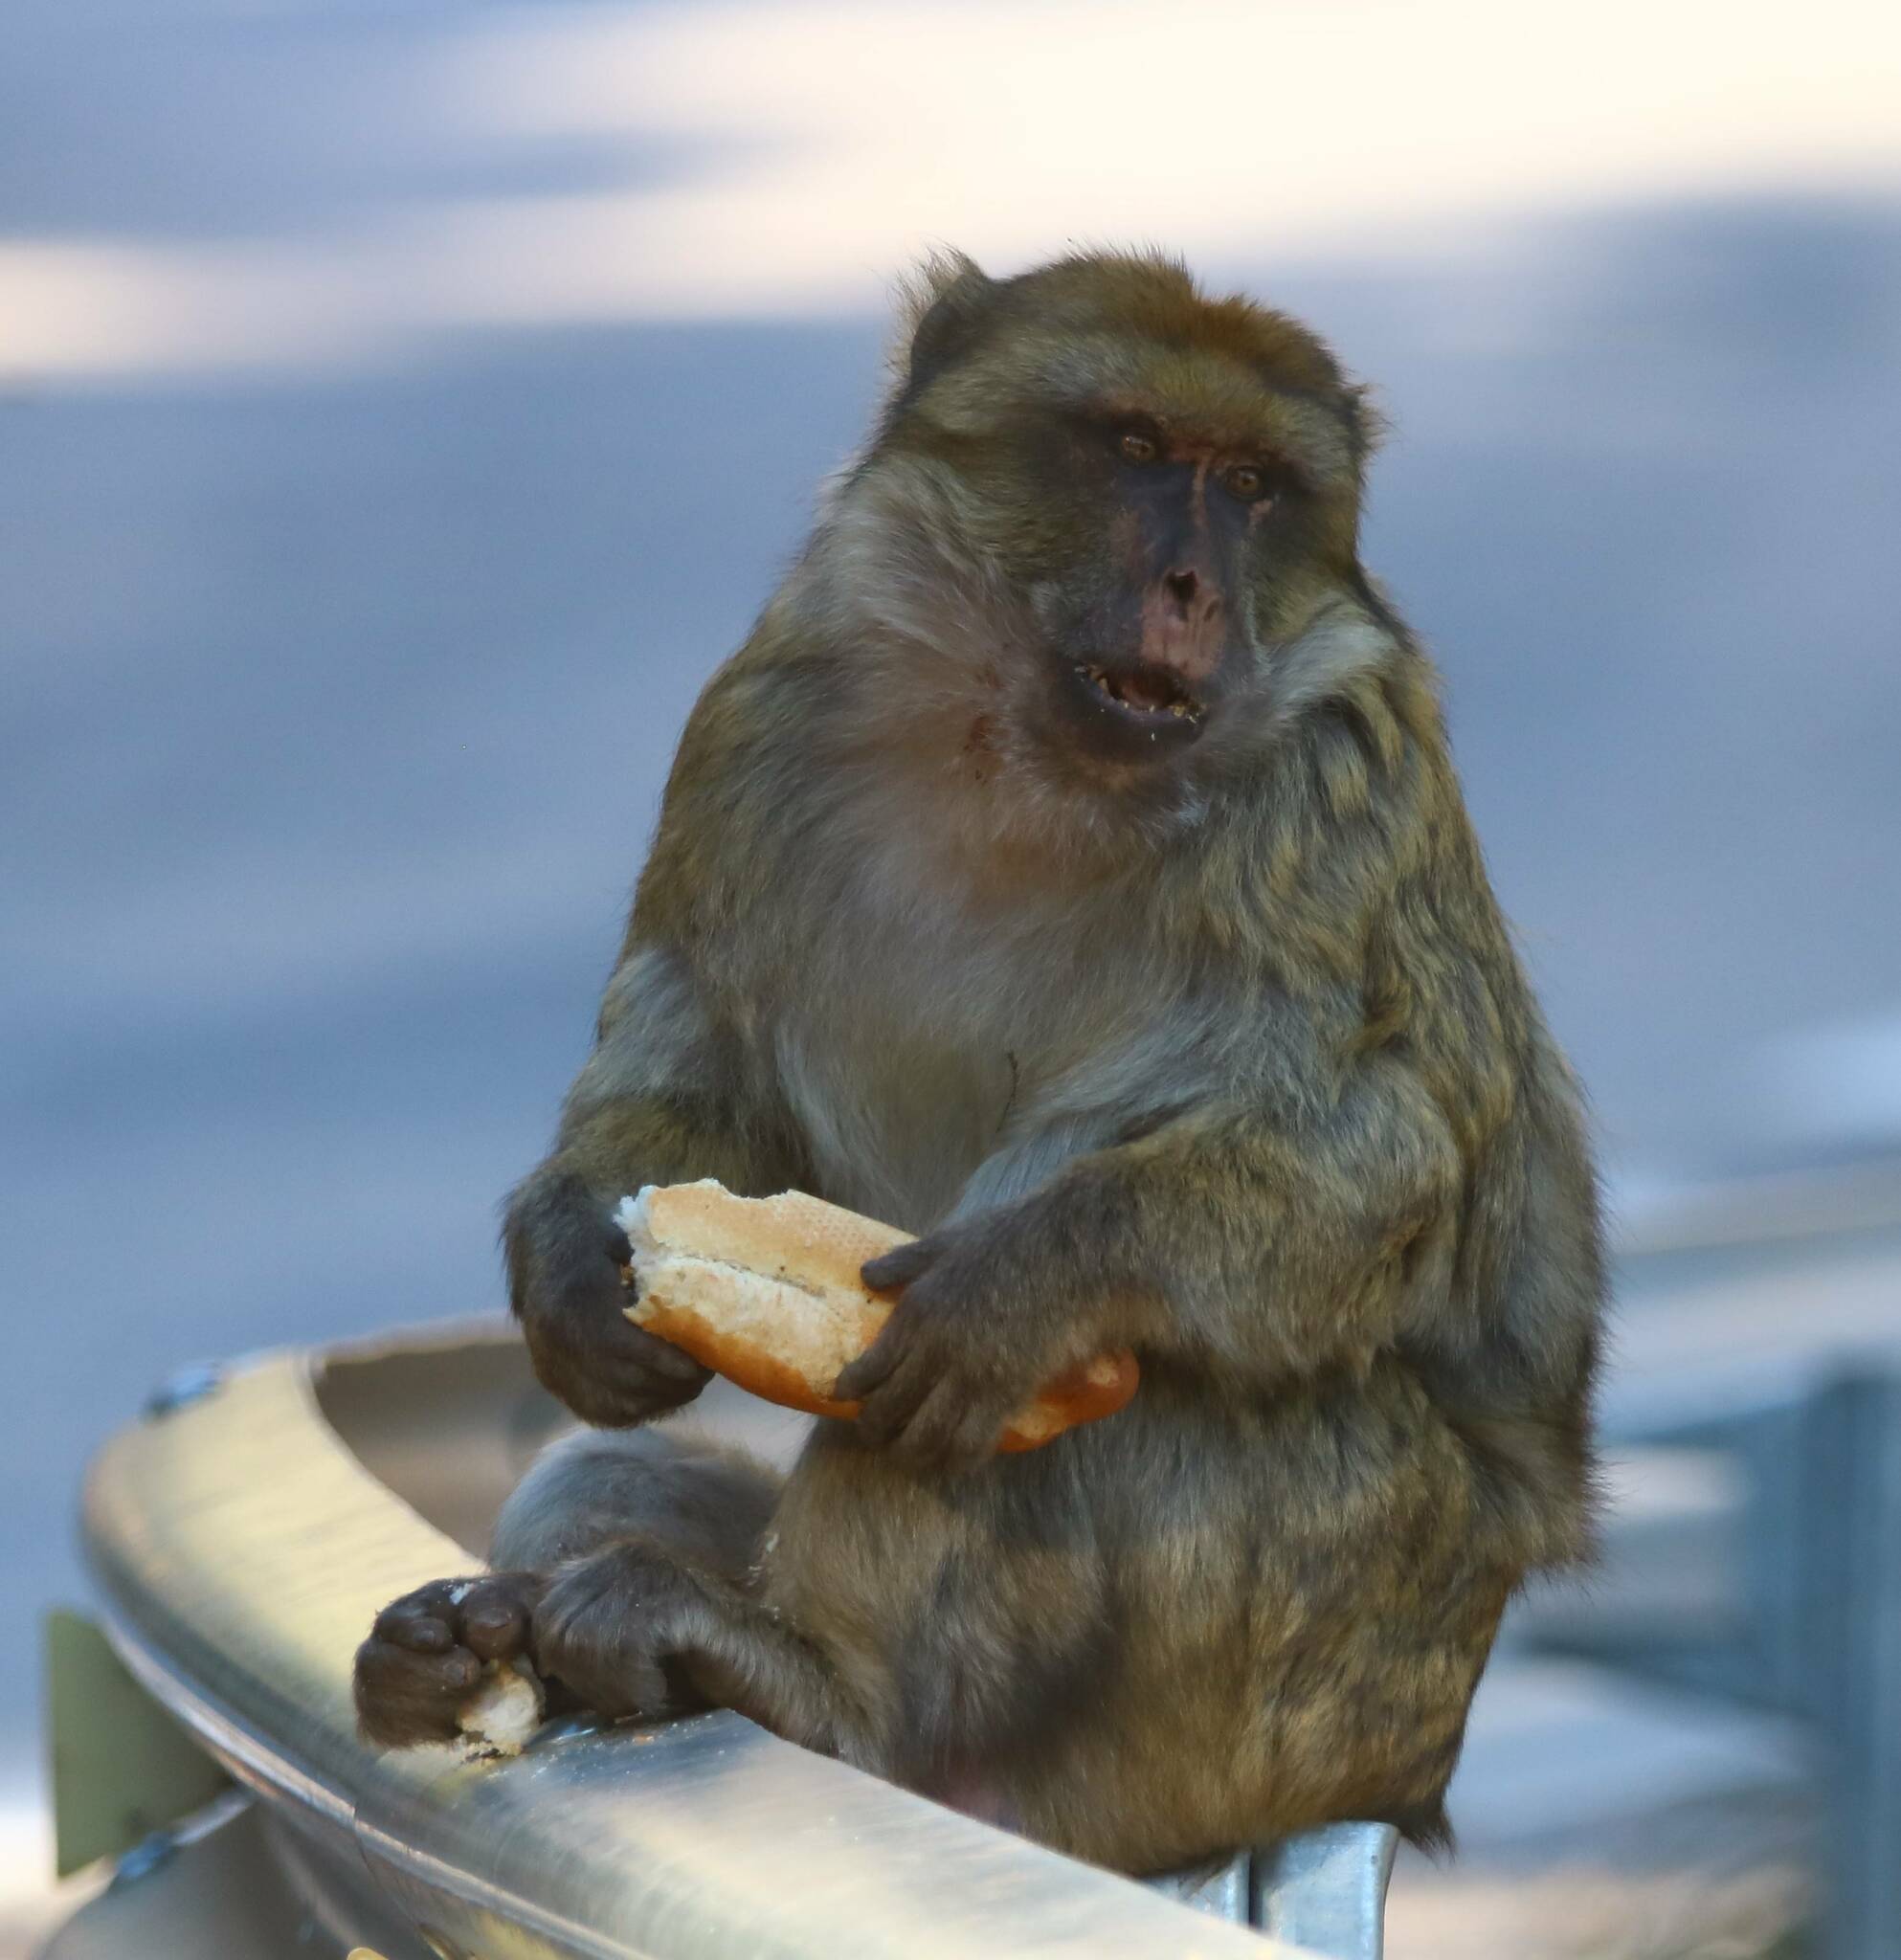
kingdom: Animalia
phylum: Chordata
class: Mammalia
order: Primates
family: Cercopithecidae
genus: Macaca
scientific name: Macaca sylvanus
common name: Barbary macaque
